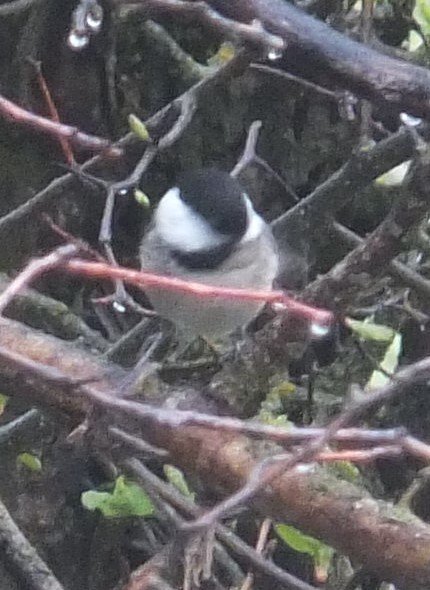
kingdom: Animalia
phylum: Chordata
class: Aves
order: Passeriformes
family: Paridae
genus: Poecile
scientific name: Poecile atricapillus
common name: Black-capped chickadee
